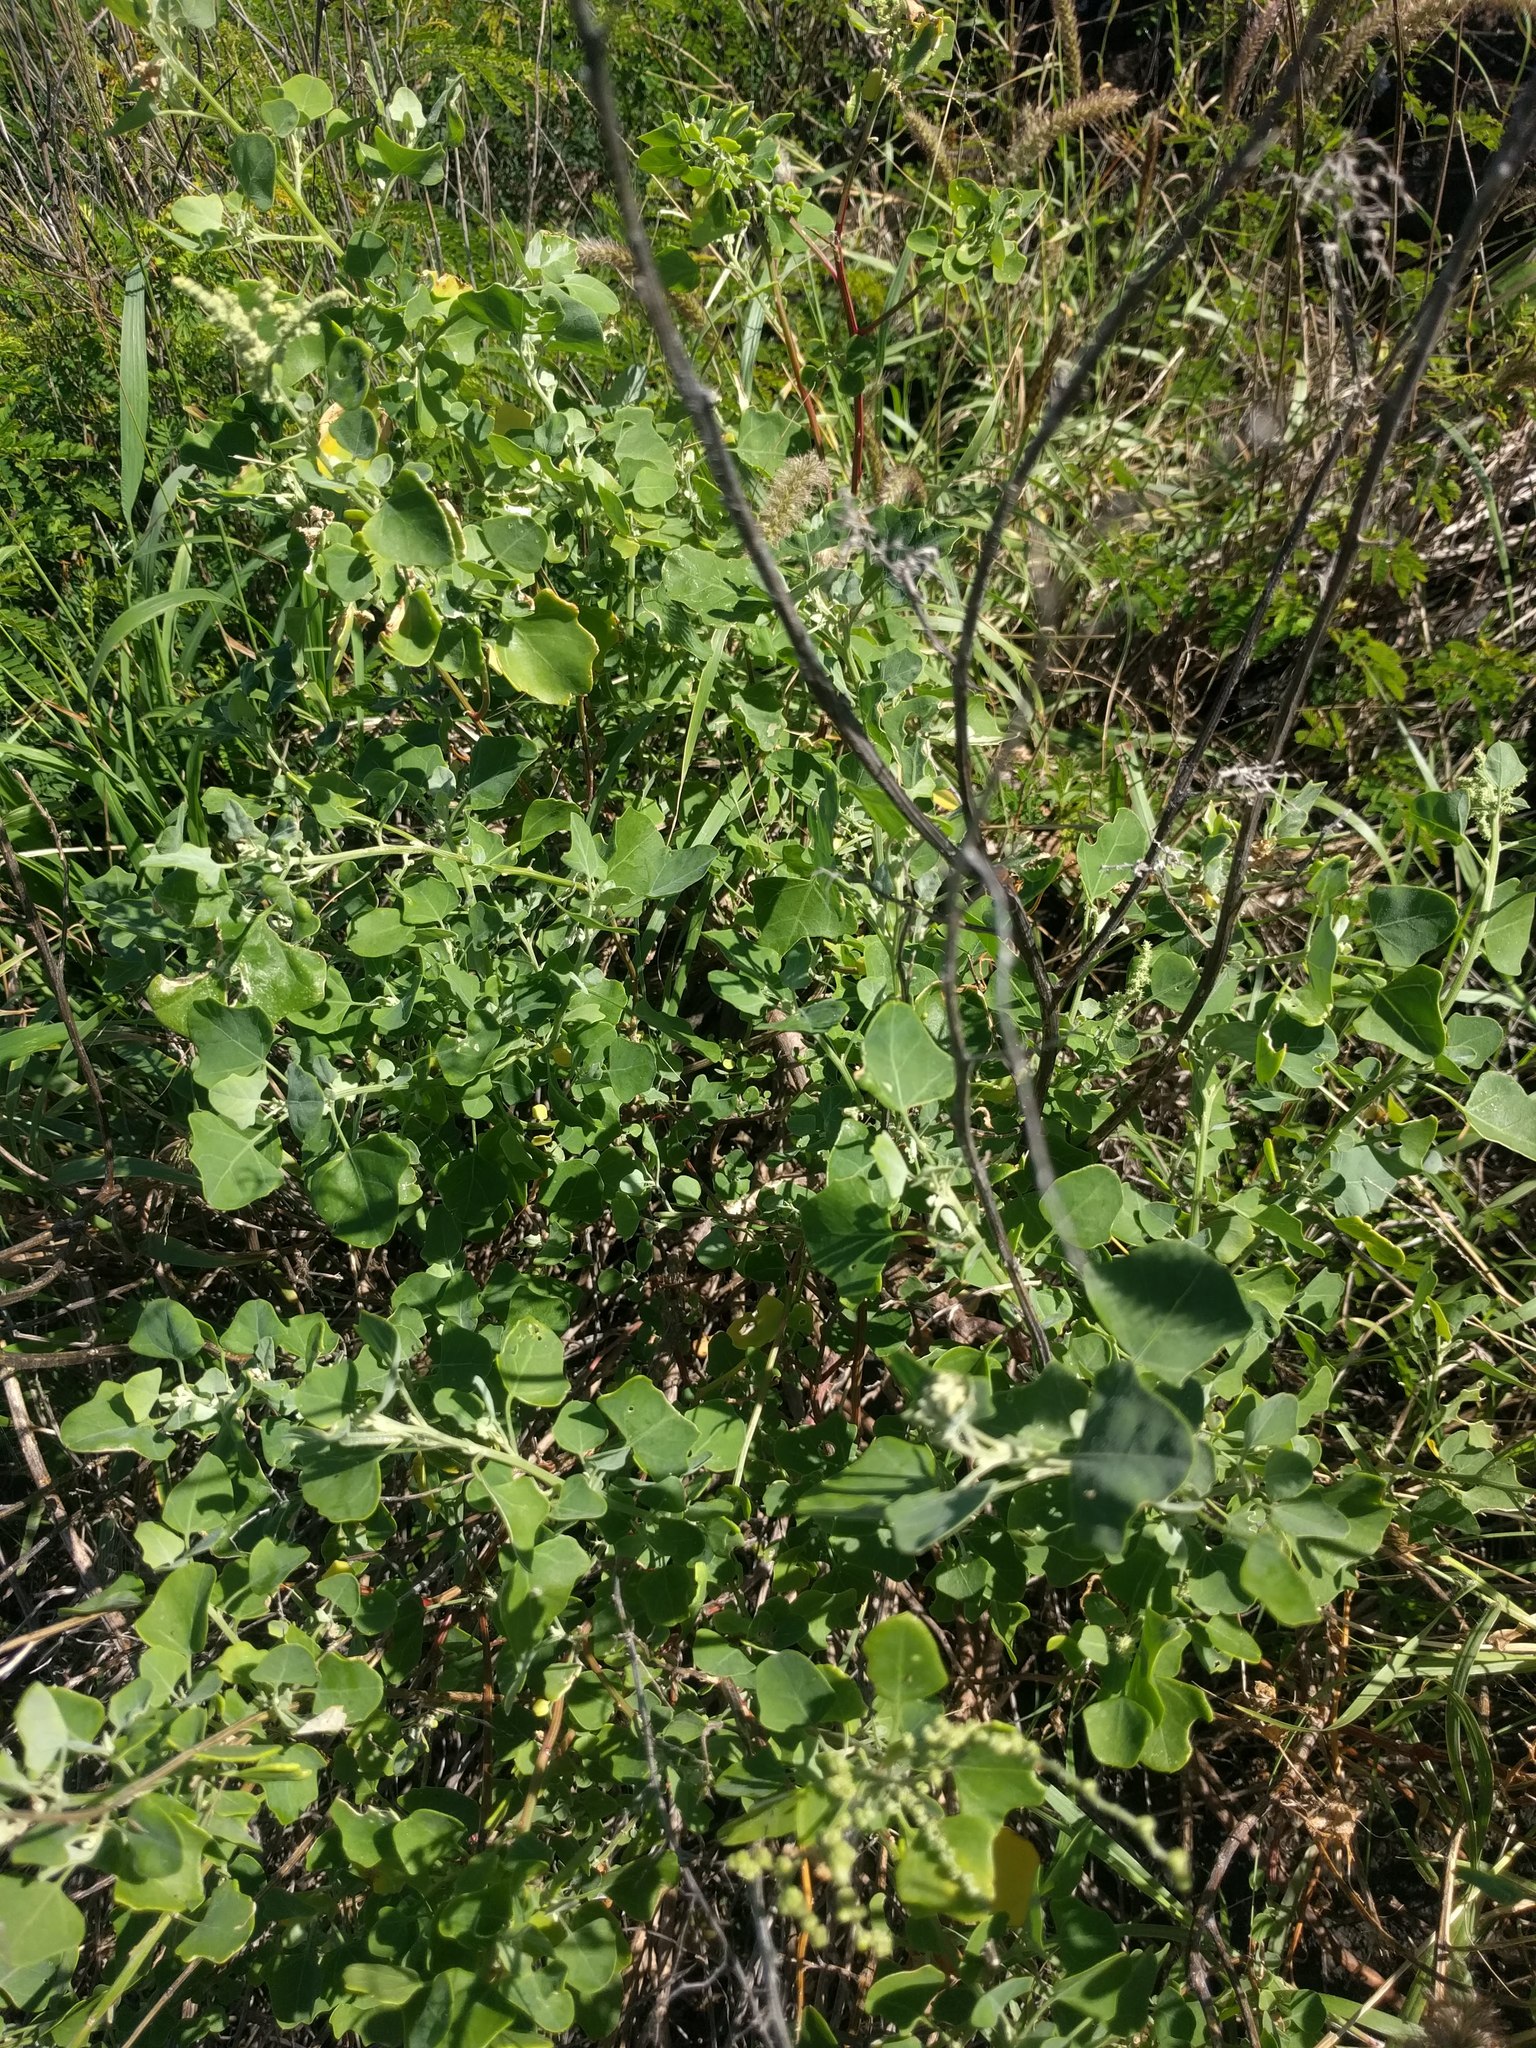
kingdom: Plantae
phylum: Tracheophyta
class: Magnoliopsida
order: Caryophyllales
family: Amaranthaceae
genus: Chenopodium
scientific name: Chenopodium oahuense
